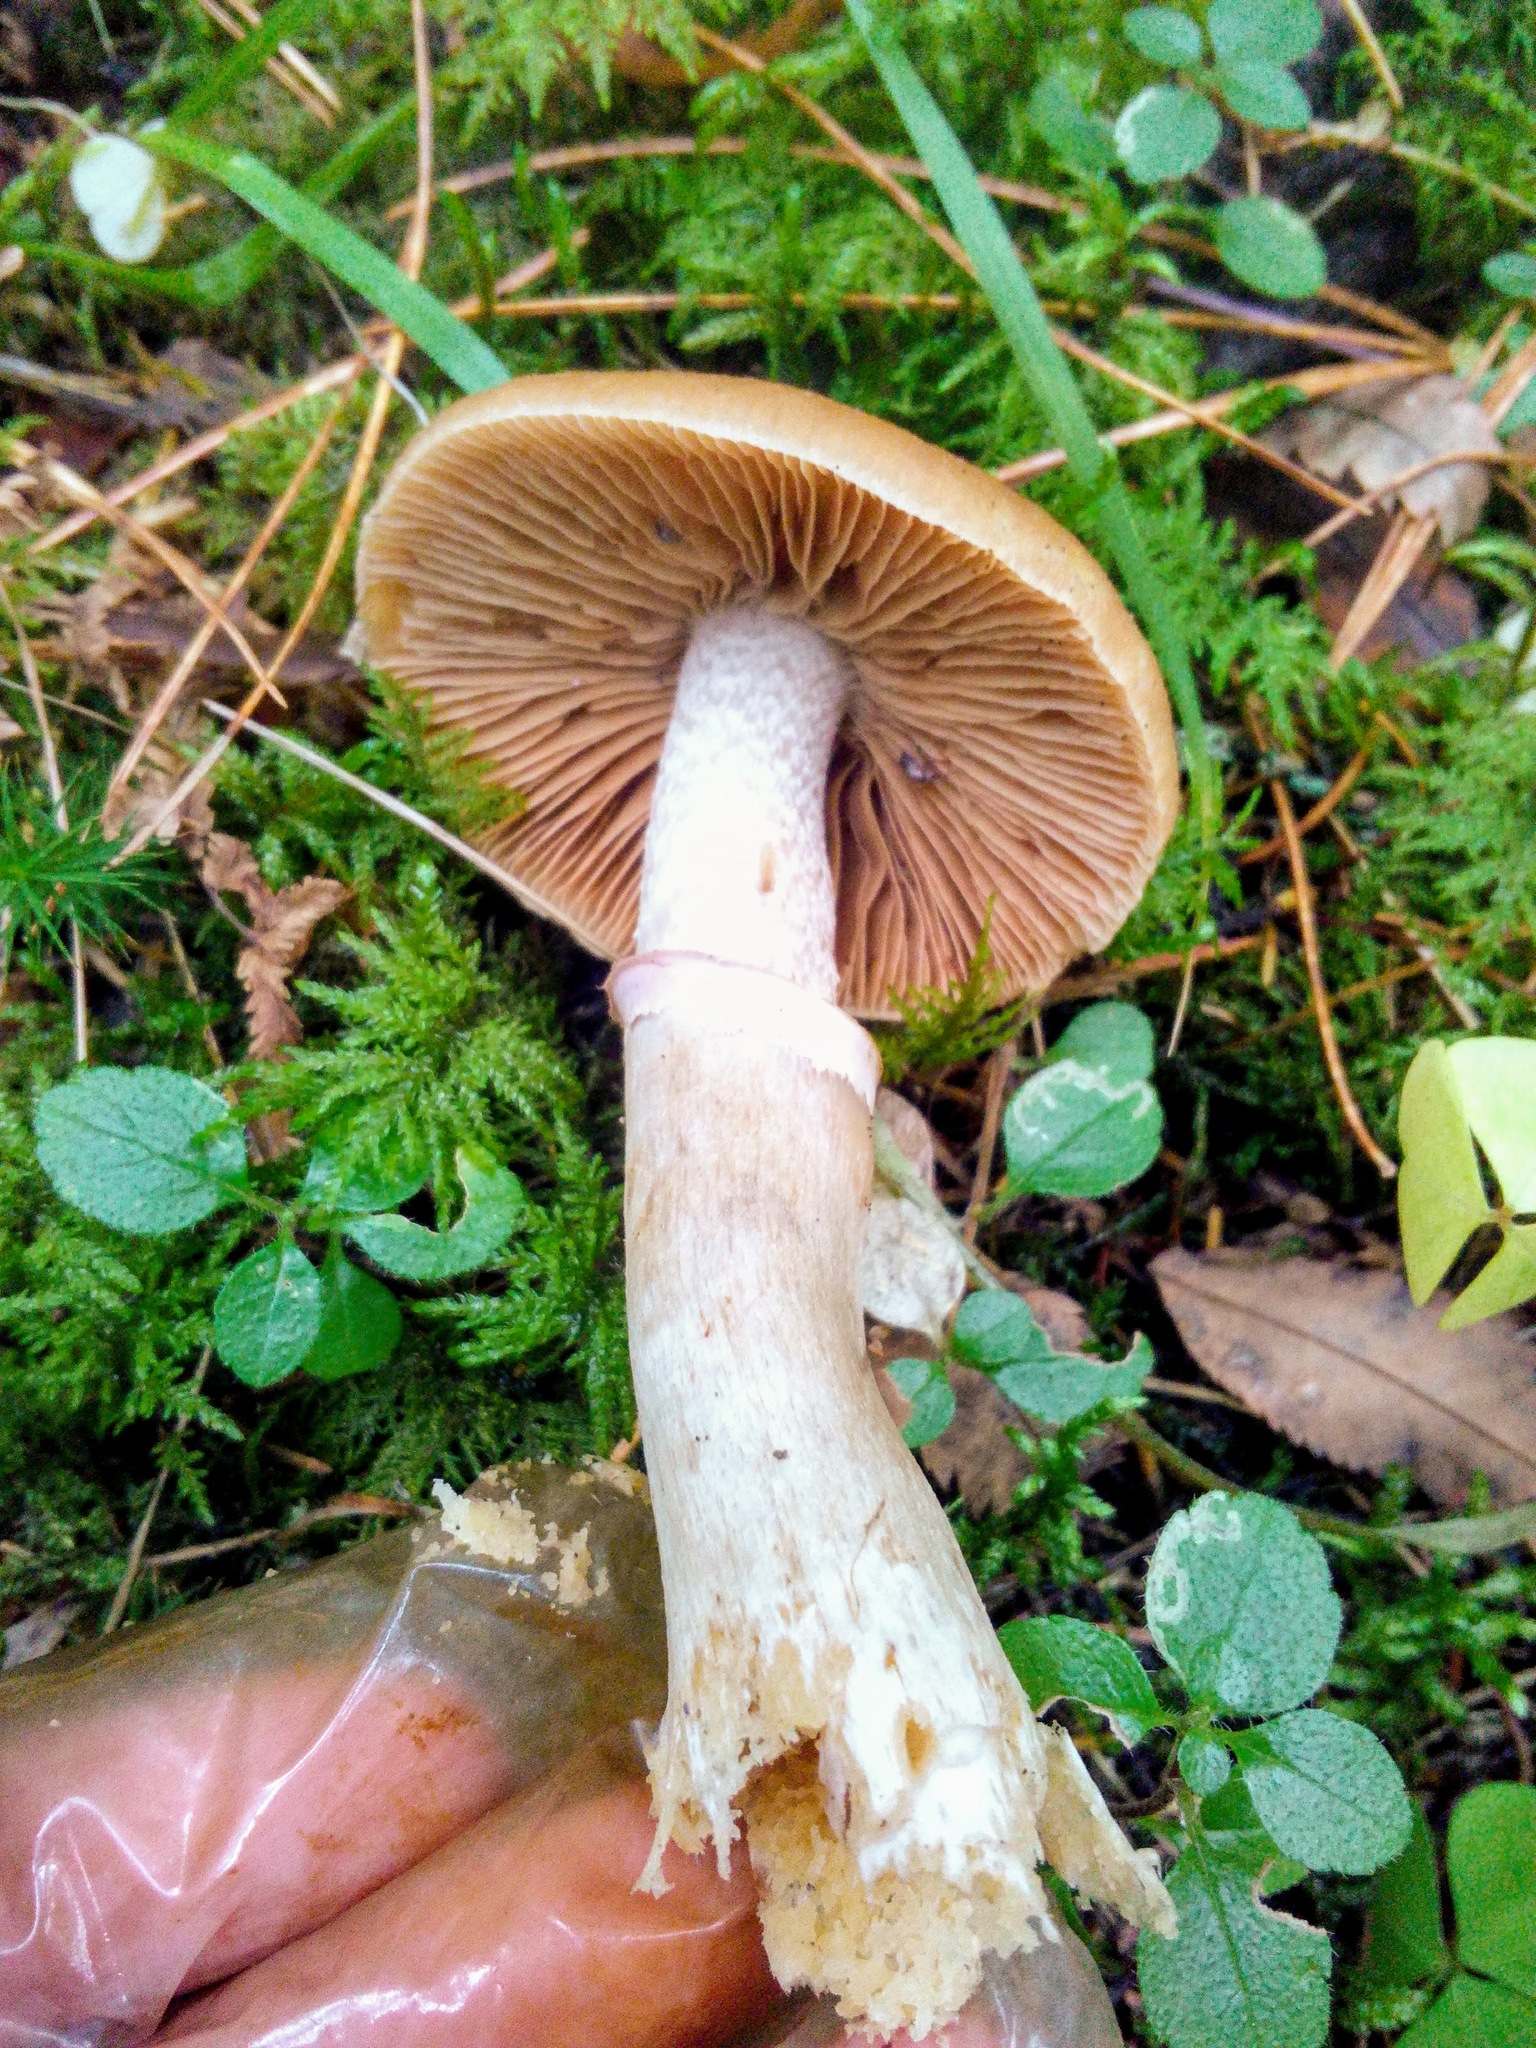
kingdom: Fungi
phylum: Basidiomycota
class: Agaricomycetes
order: Agaricales
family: Cortinariaceae
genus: Cortinarius
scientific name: Cortinarius caperatus
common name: The gypsy
